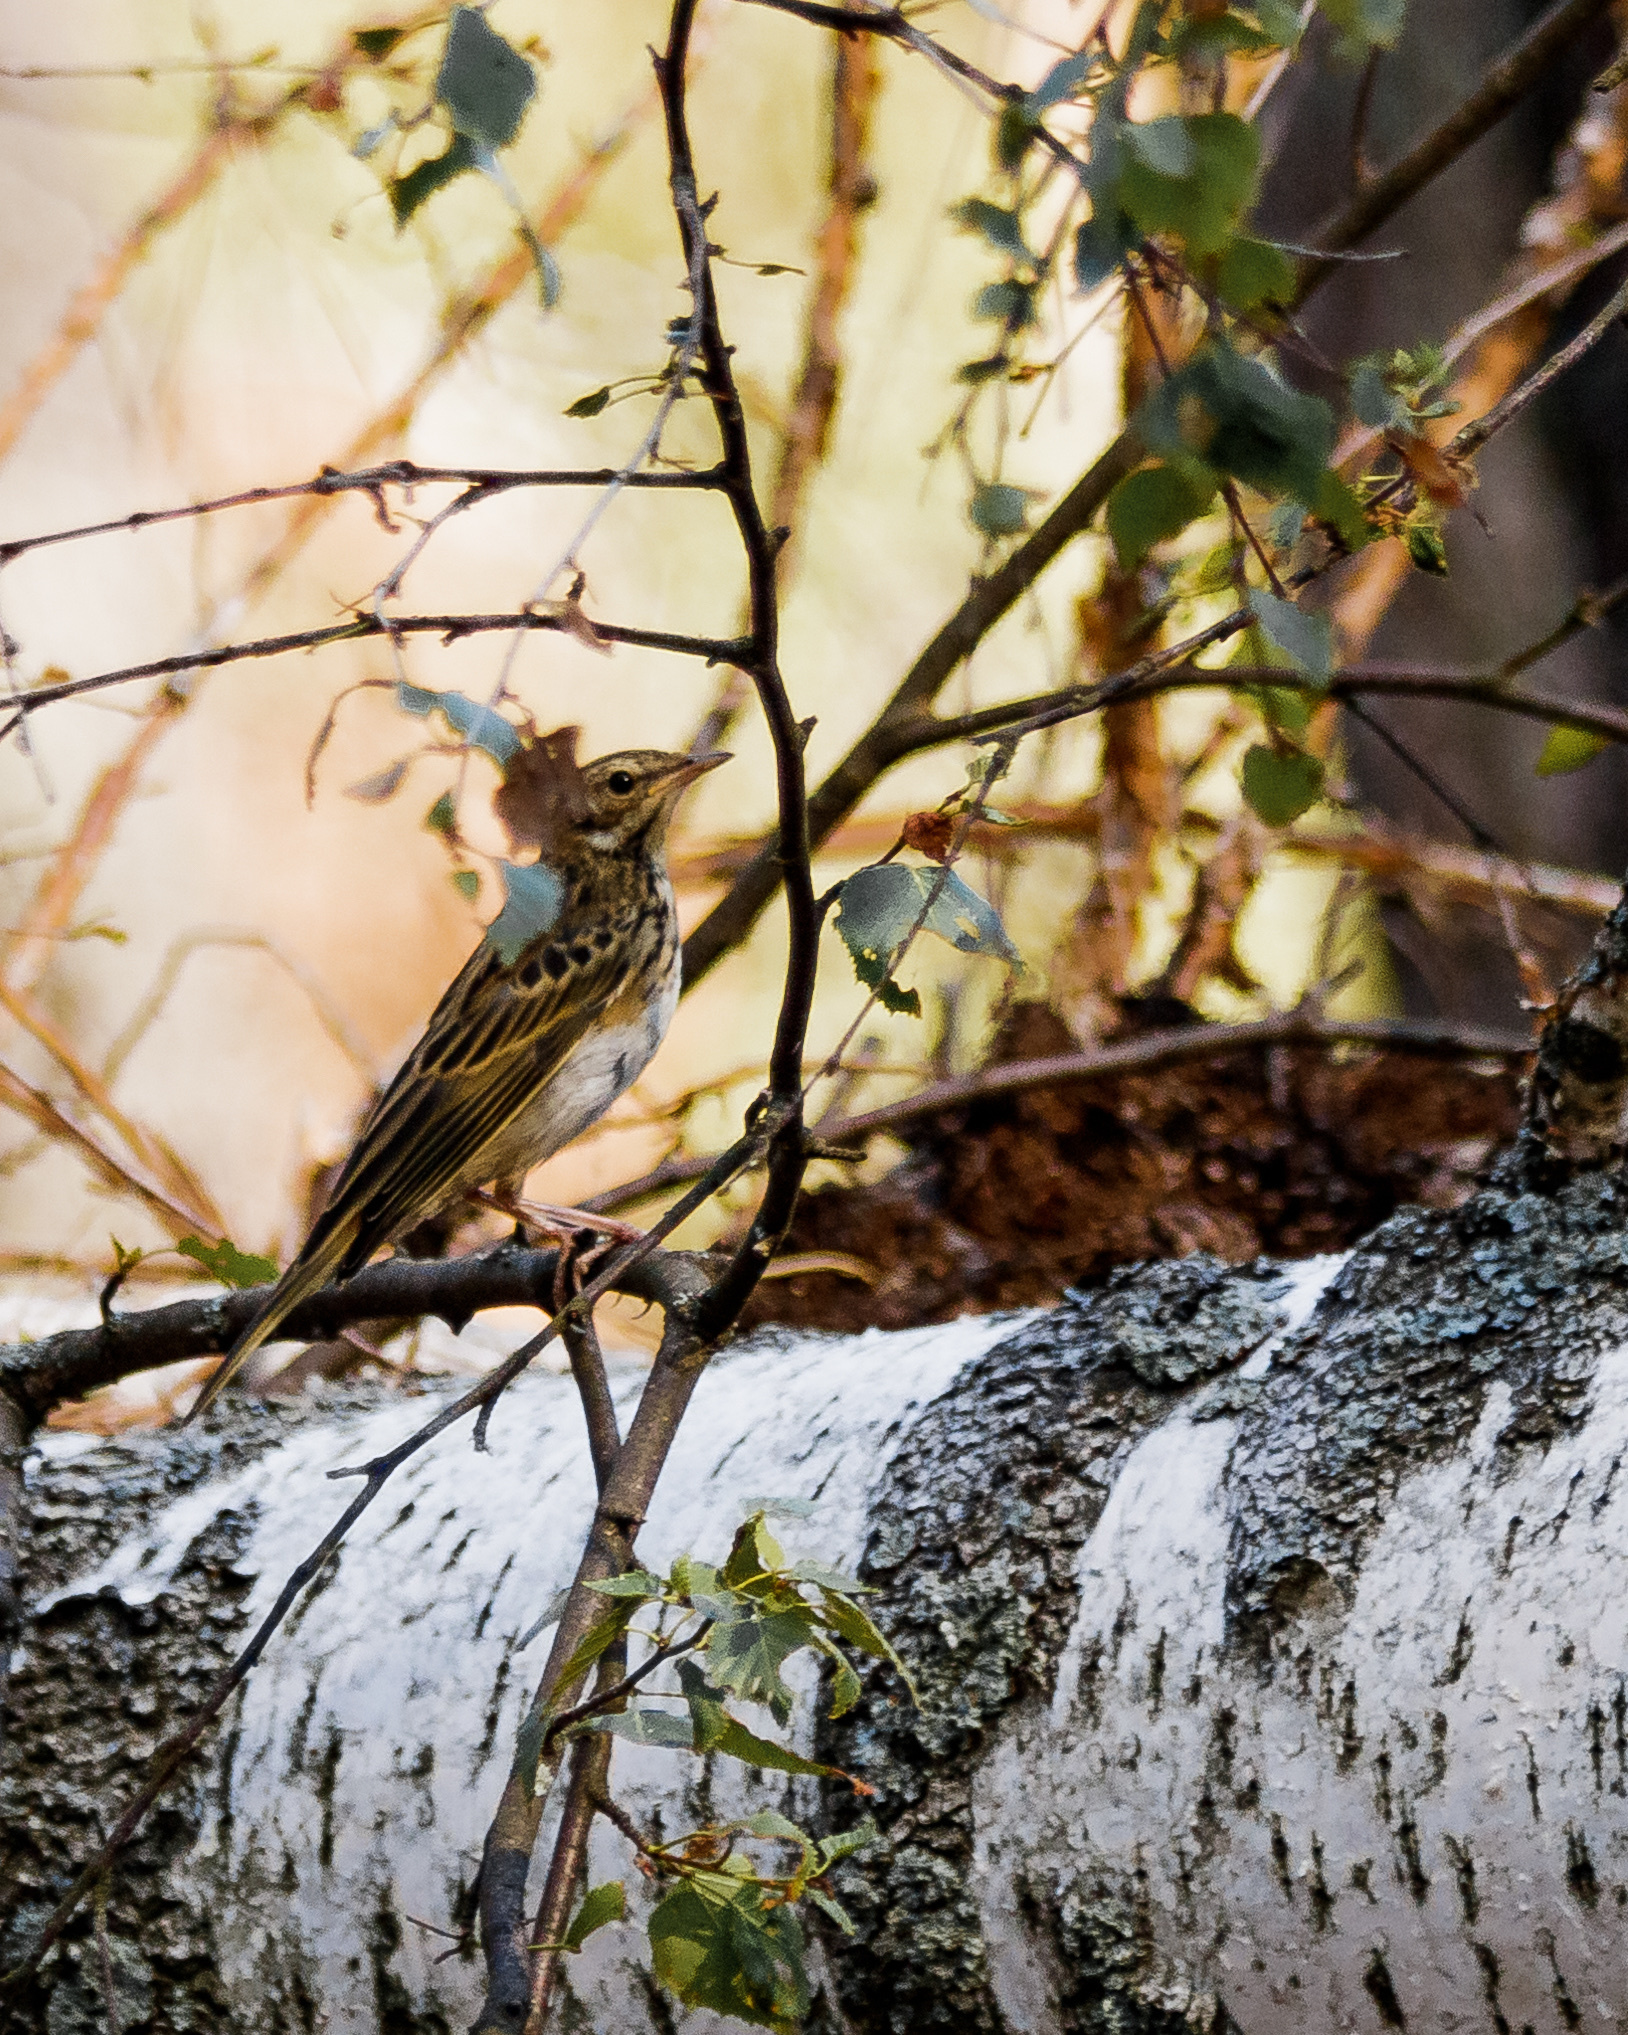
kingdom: Animalia
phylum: Chordata
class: Aves
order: Passeriformes
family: Motacillidae
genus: Anthus
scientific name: Anthus trivialis
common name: Tree pipit
